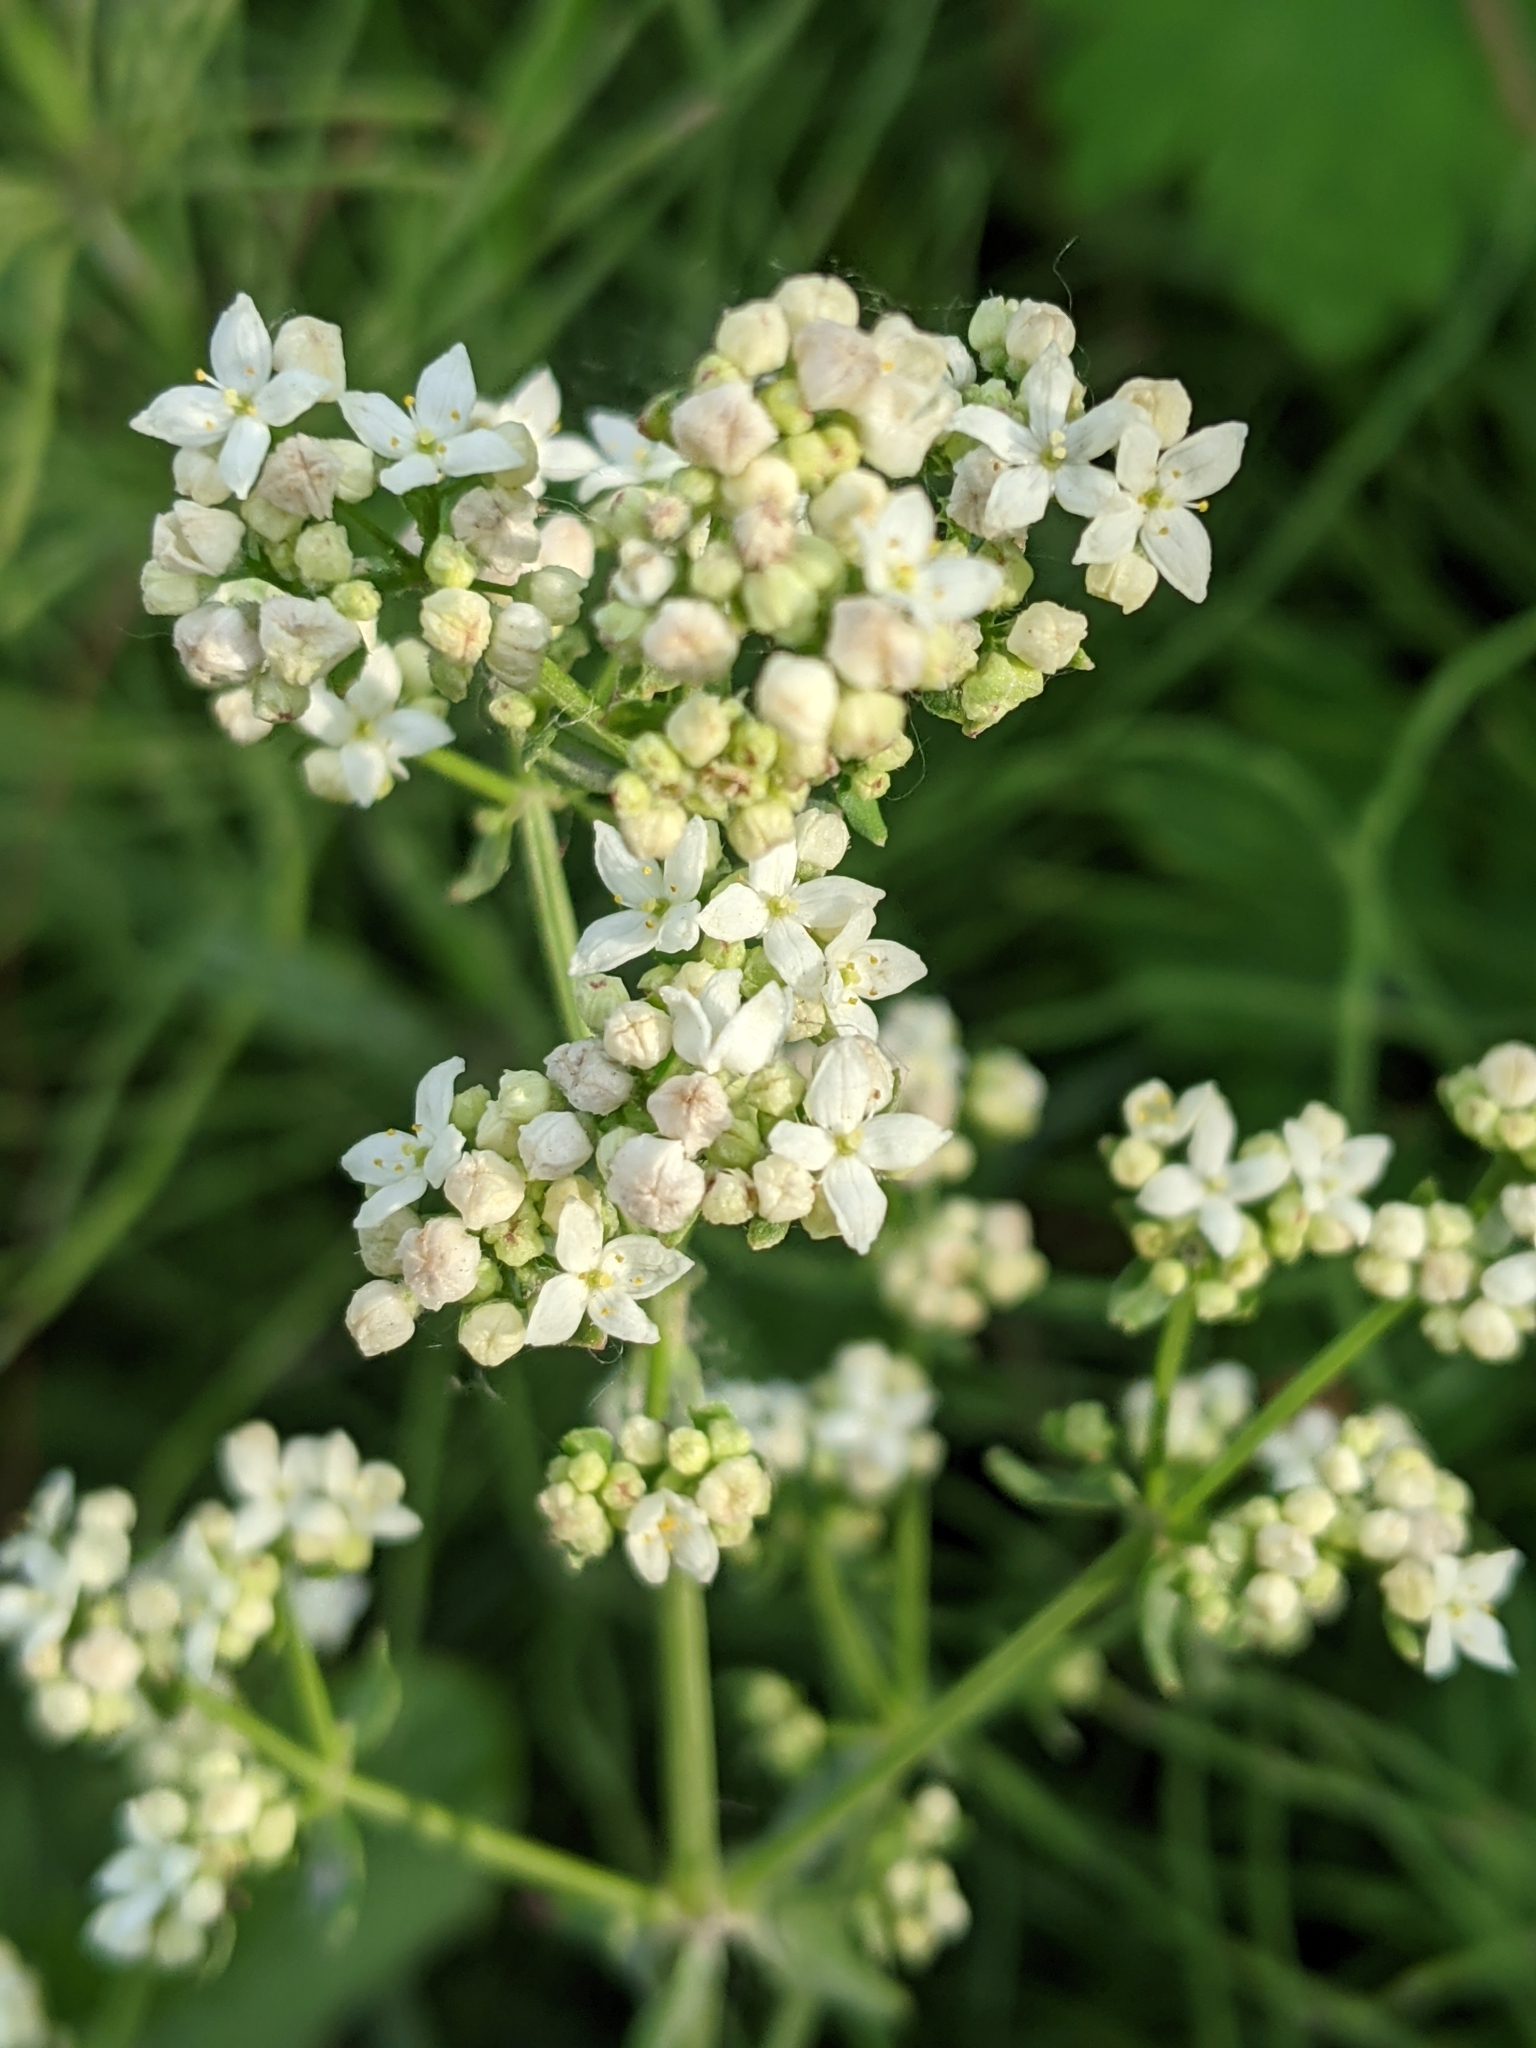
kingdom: Plantae
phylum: Tracheophyta
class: Magnoliopsida
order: Gentianales
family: Rubiaceae
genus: Galium
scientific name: Galium boreale
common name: Northern bedstraw
